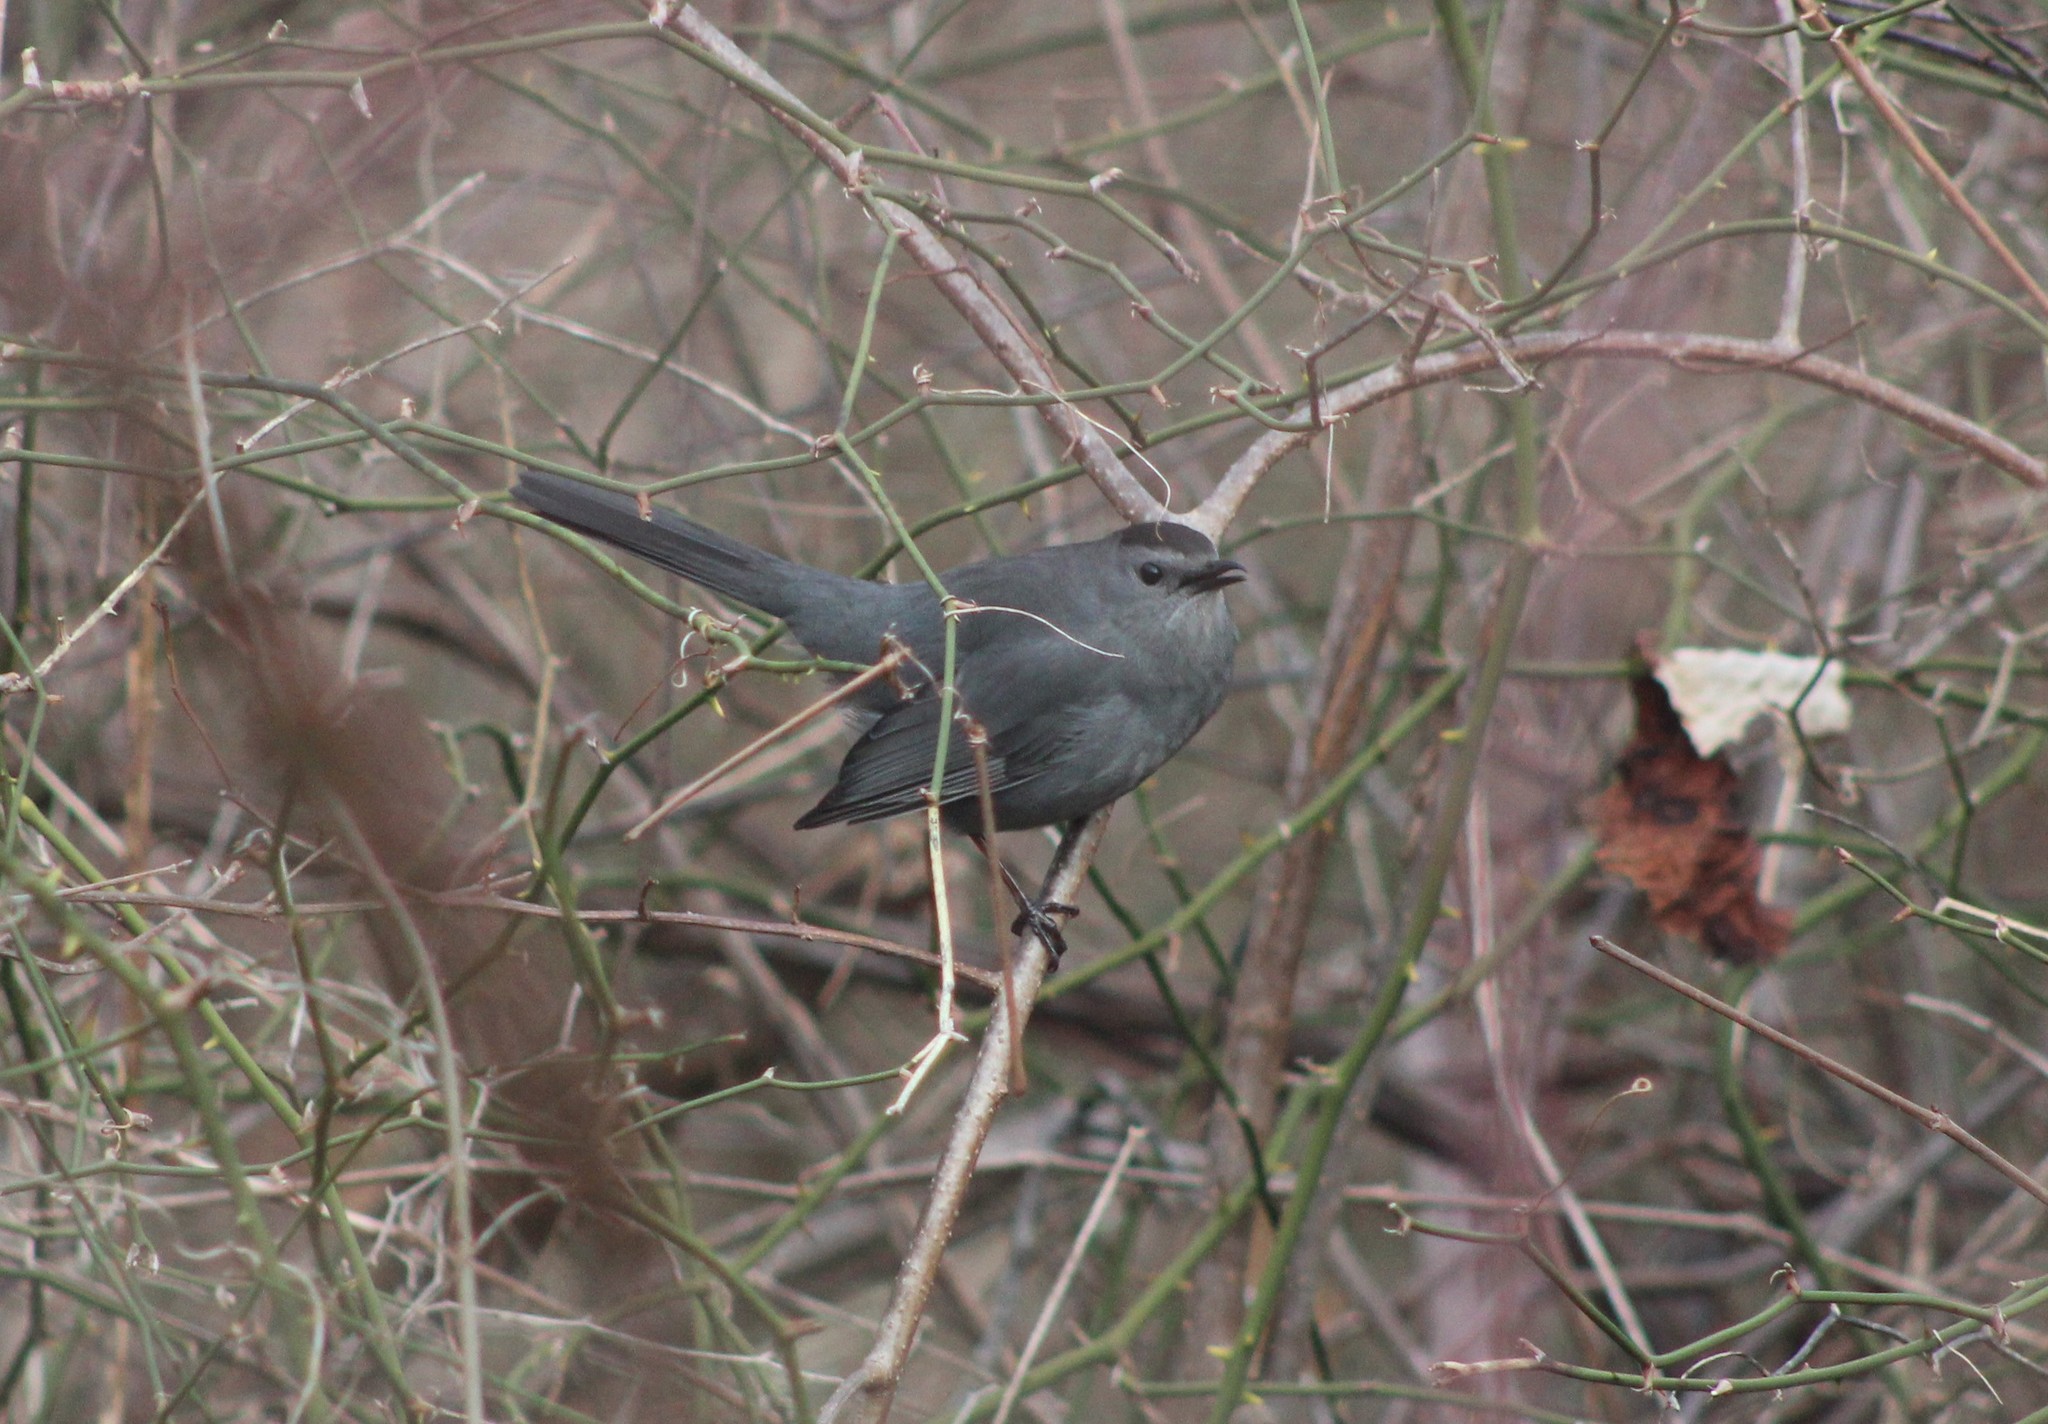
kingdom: Animalia
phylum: Chordata
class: Aves
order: Passeriformes
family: Mimidae
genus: Dumetella
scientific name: Dumetella carolinensis
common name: Gray catbird
